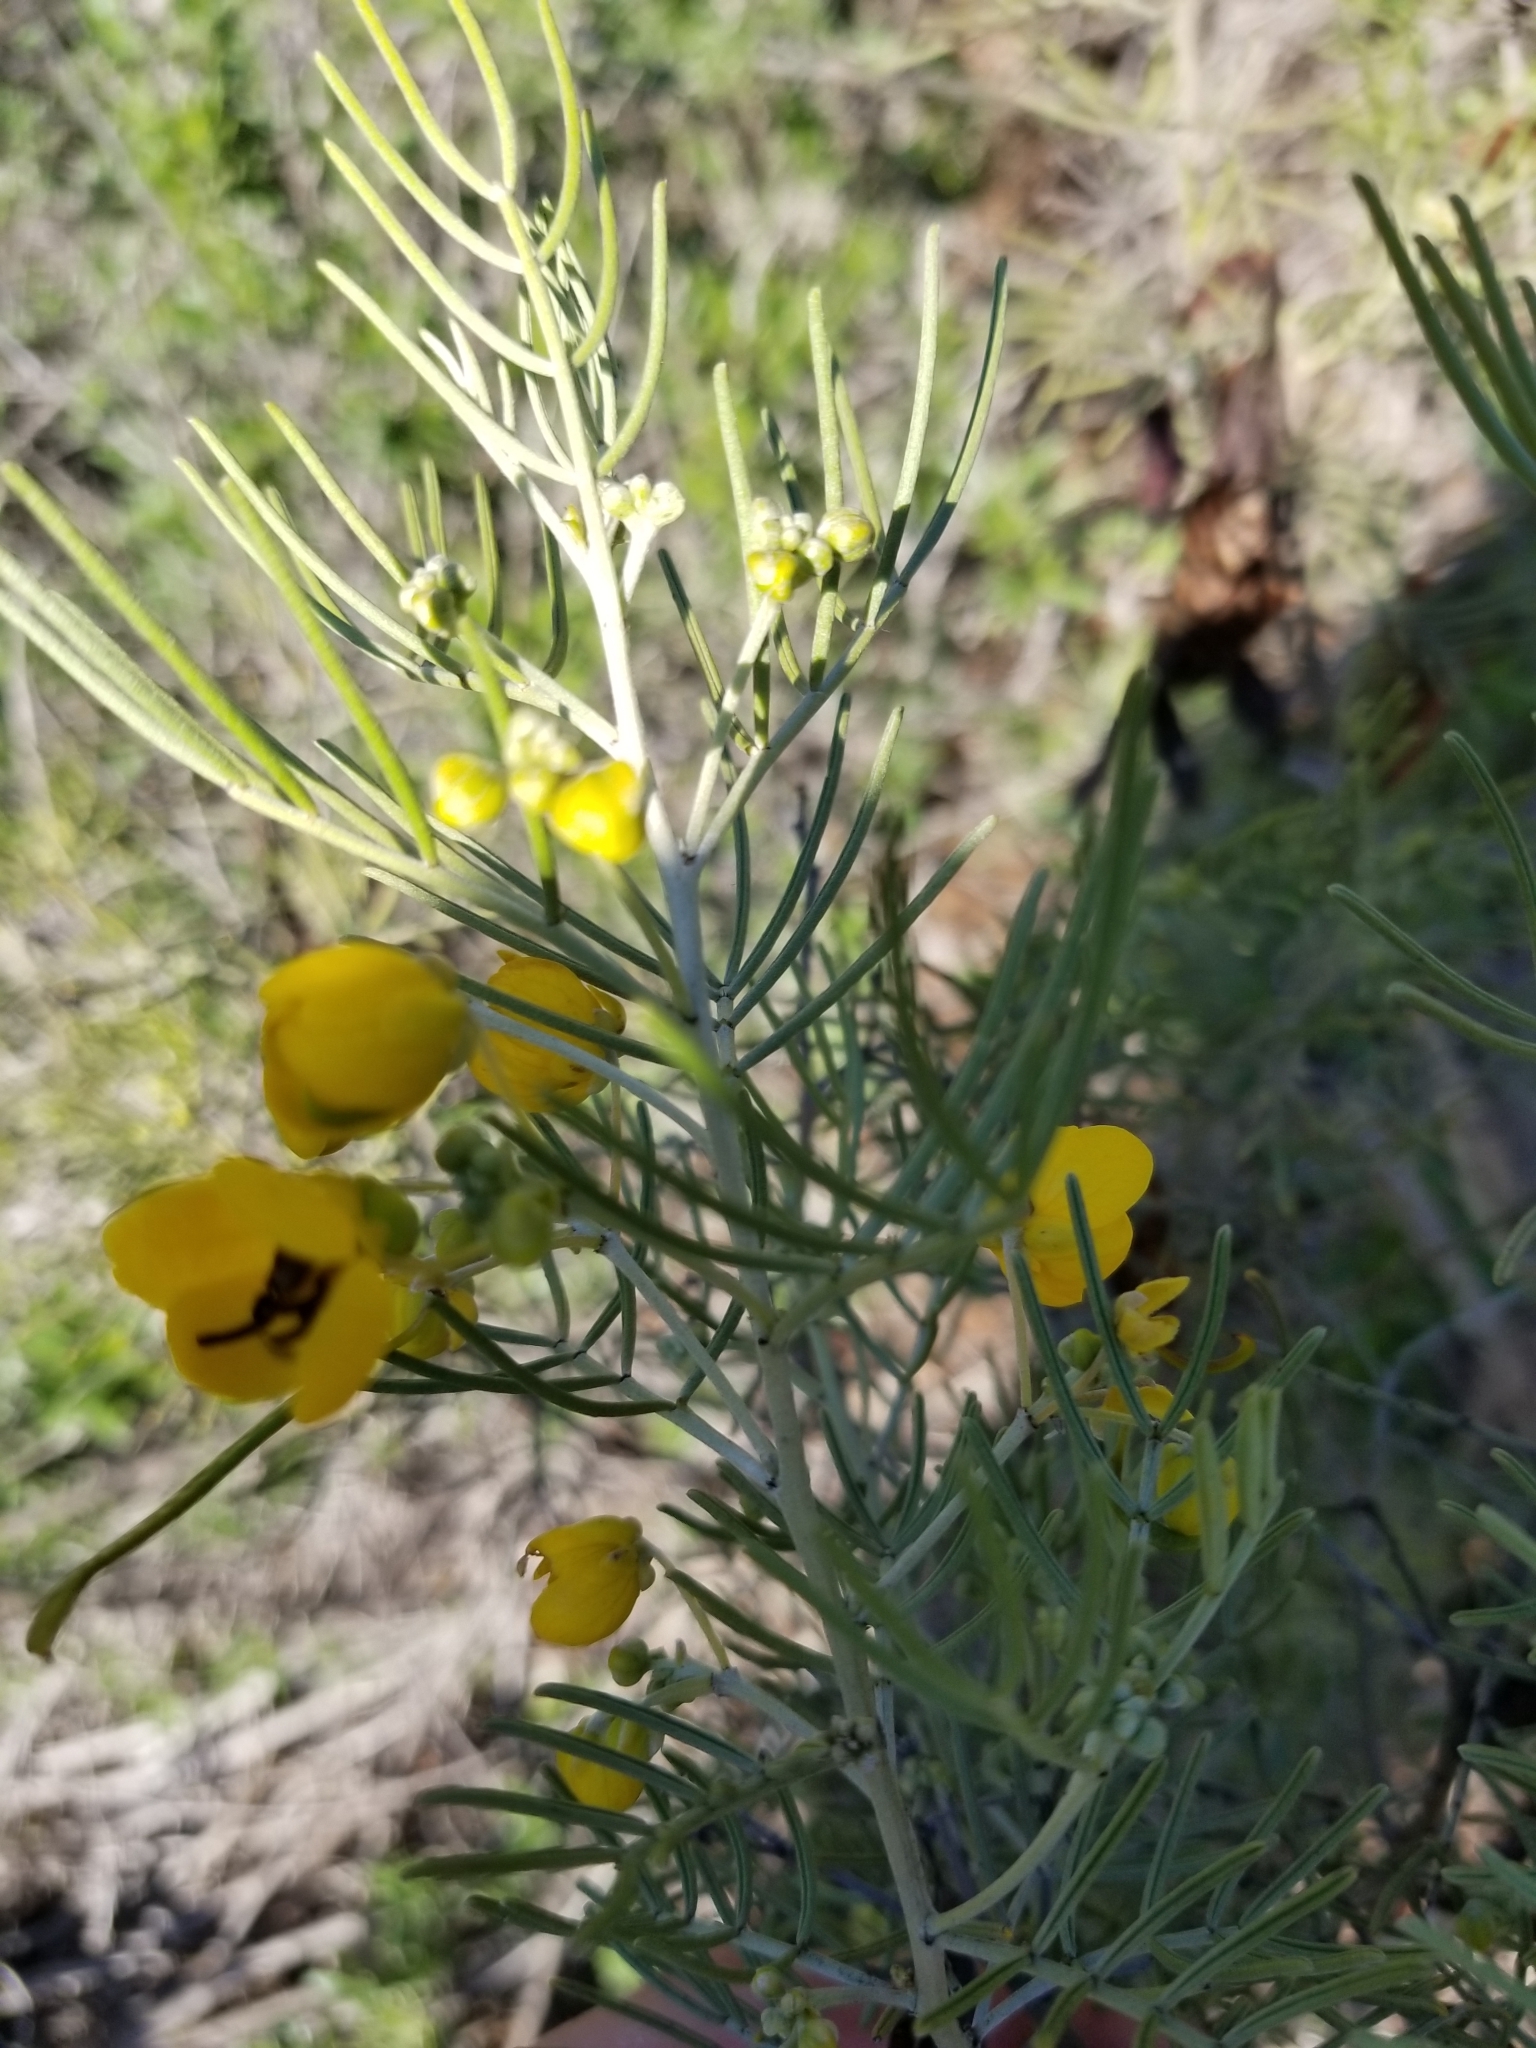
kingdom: Plantae
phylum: Tracheophyta
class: Magnoliopsida
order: Fabales
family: Fabaceae
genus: Senna
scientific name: Senna artemisioides
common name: Burnt-leaved acacia
